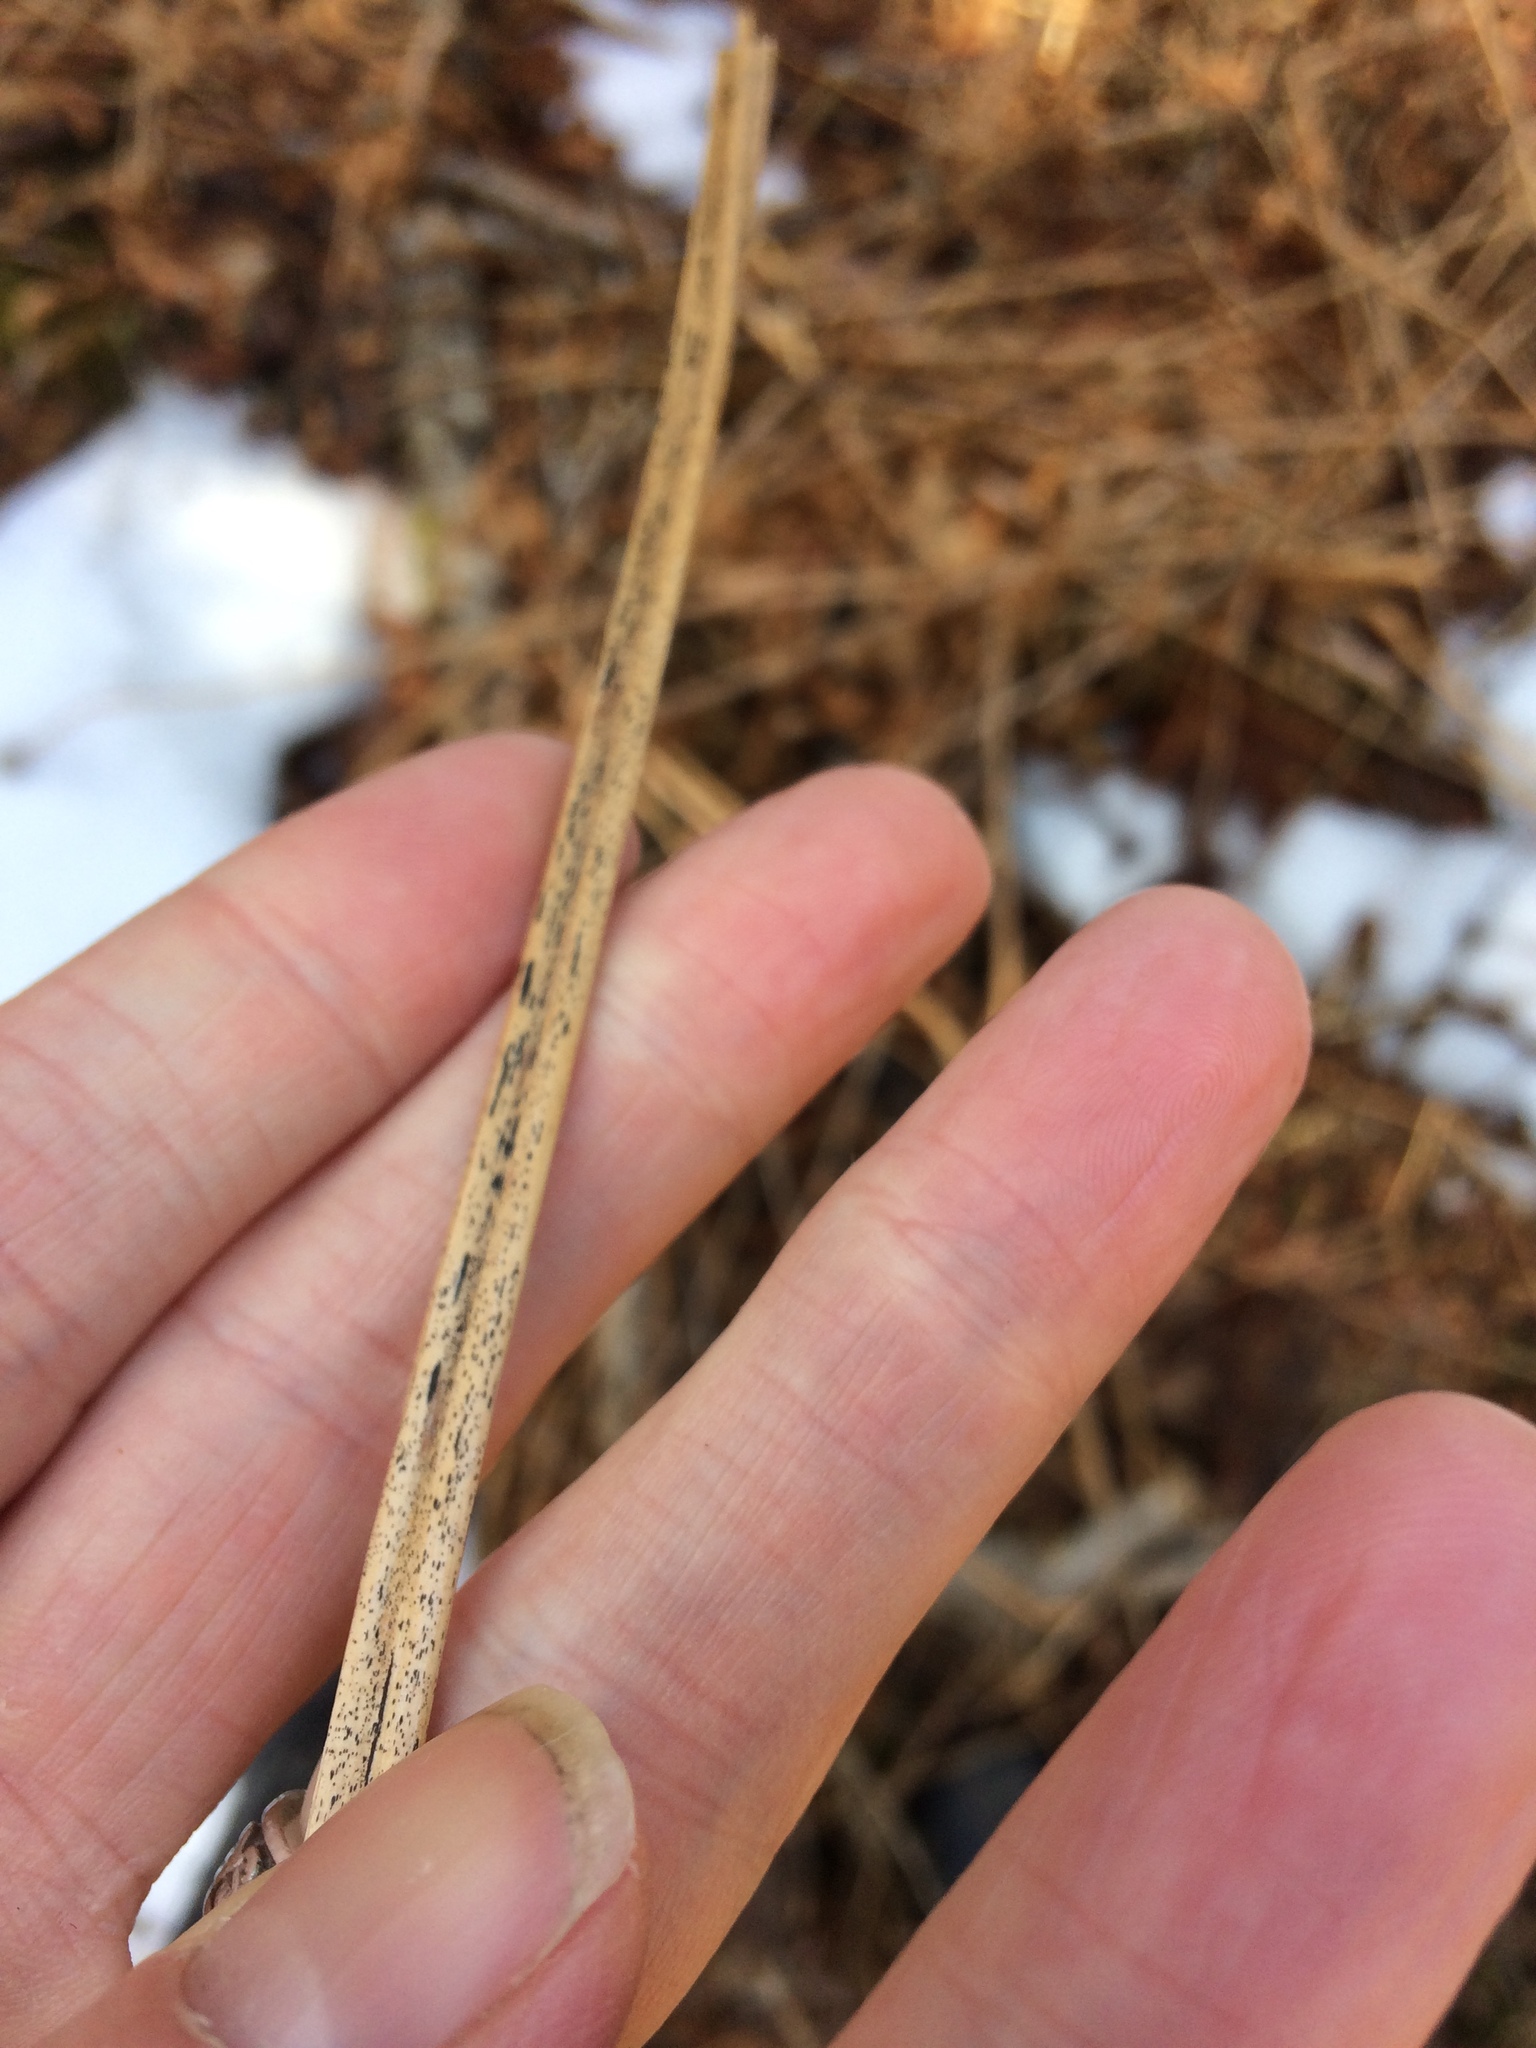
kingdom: Plantae
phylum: Tracheophyta
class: Polypodiopsida
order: Polypodiales
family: Onocleaceae
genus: Matteuccia
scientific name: Matteuccia struthiopteris
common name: Ostrich fern
